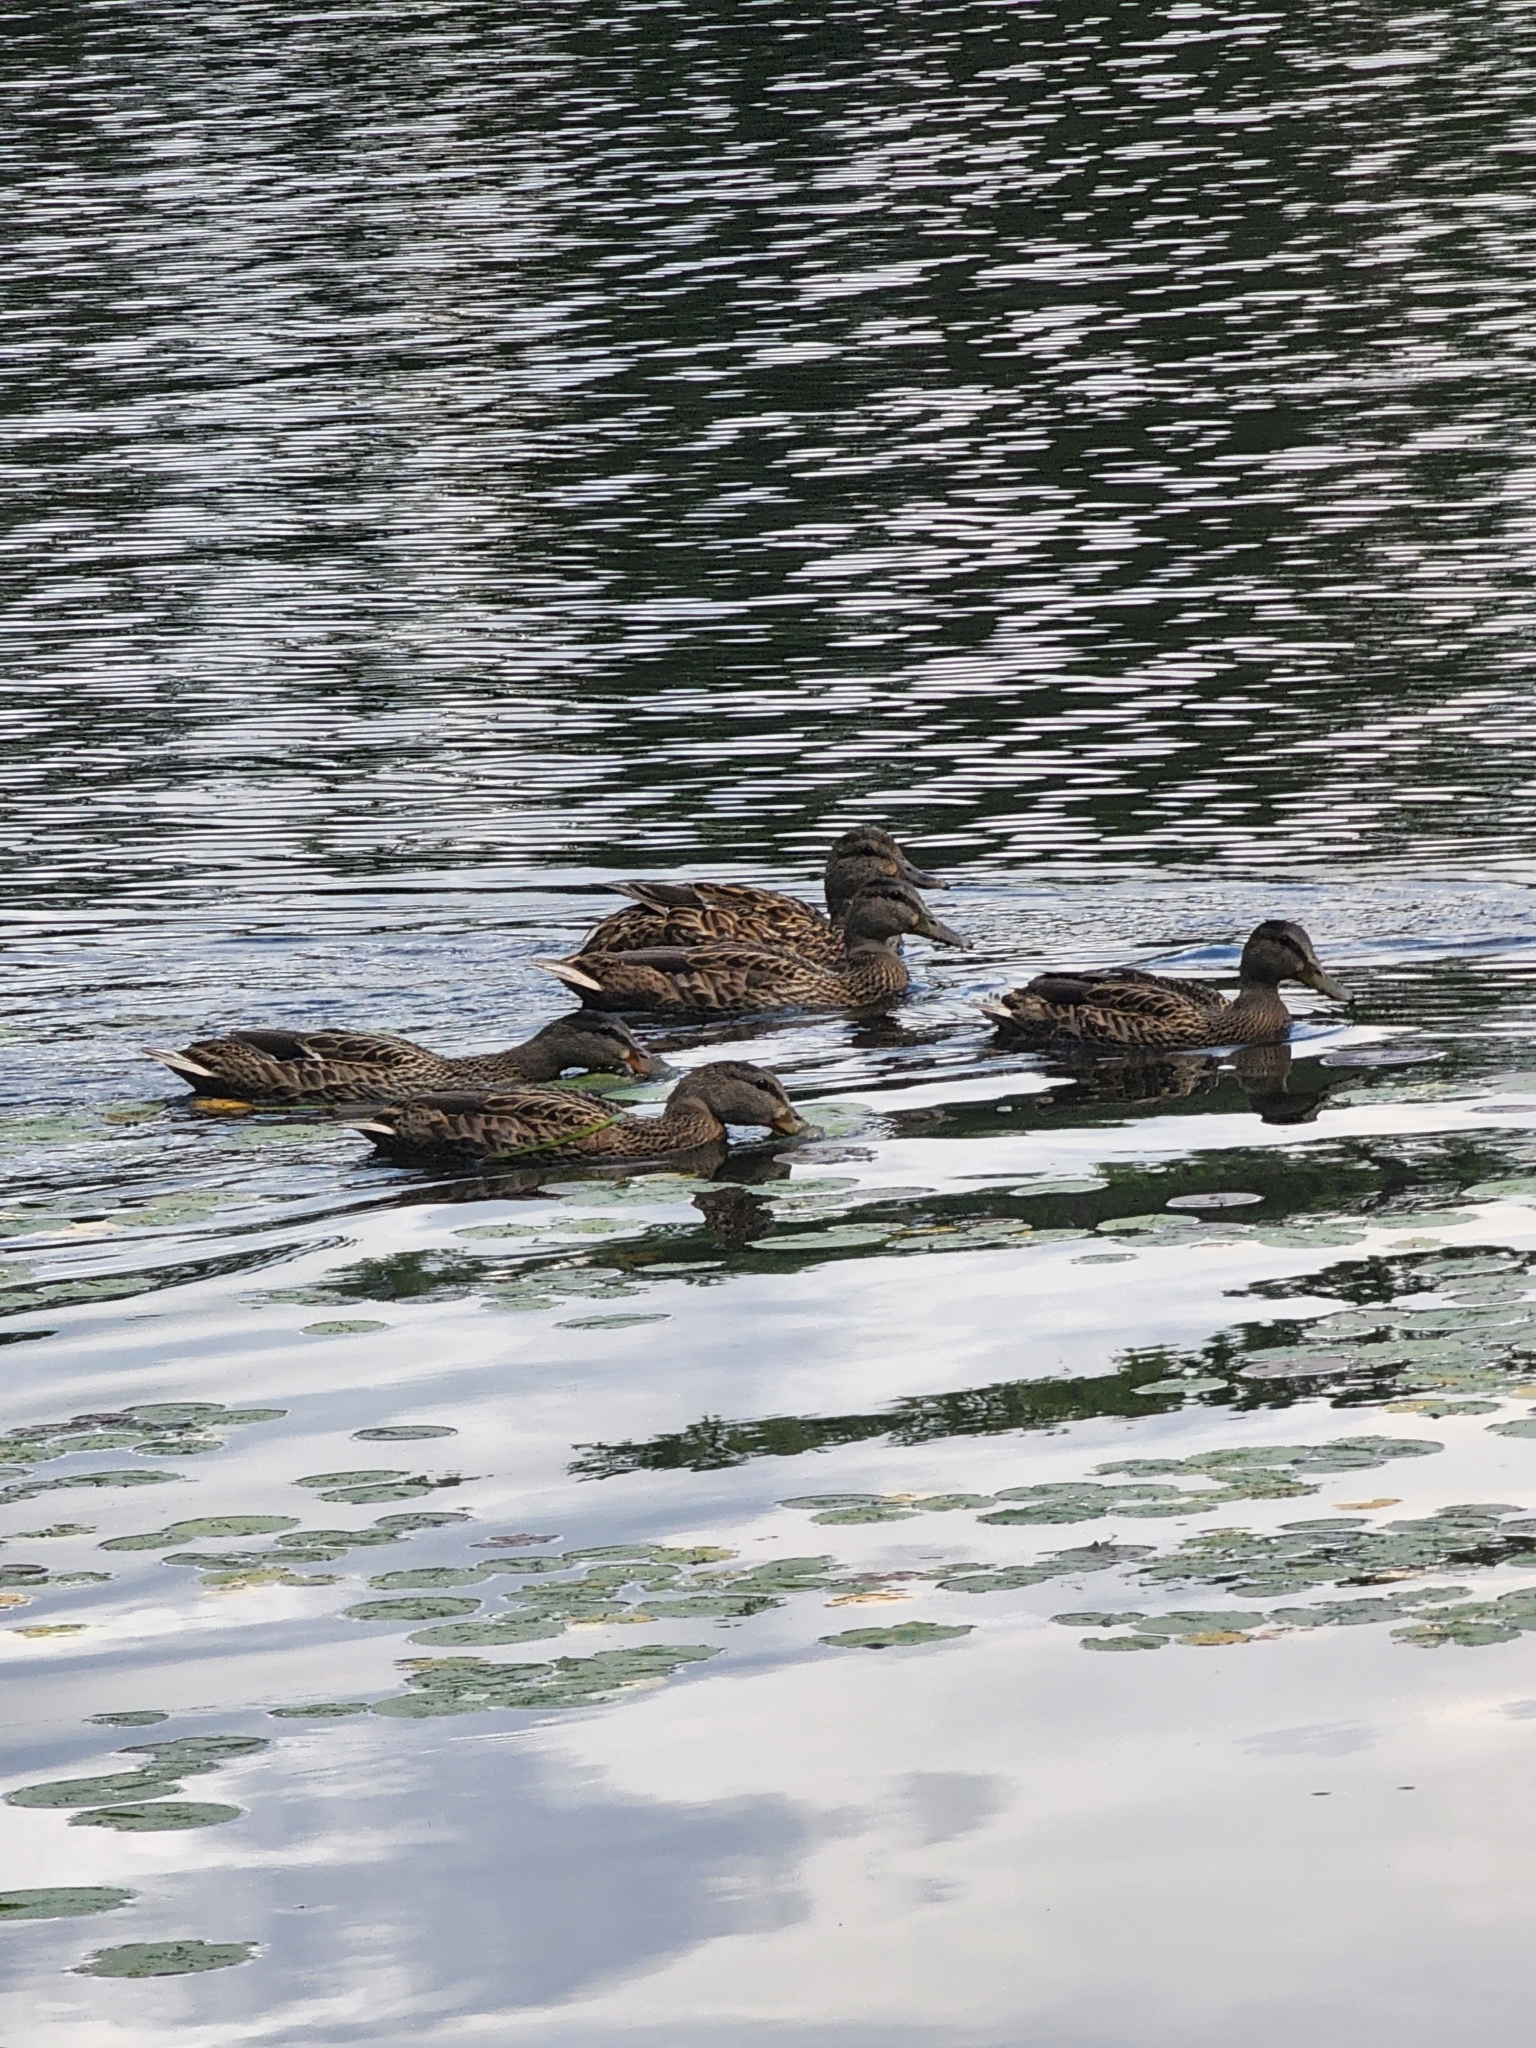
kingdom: Animalia
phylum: Chordata
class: Aves
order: Anseriformes
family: Anatidae
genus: Anas
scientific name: Anas platyrhynchos
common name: Mallard
